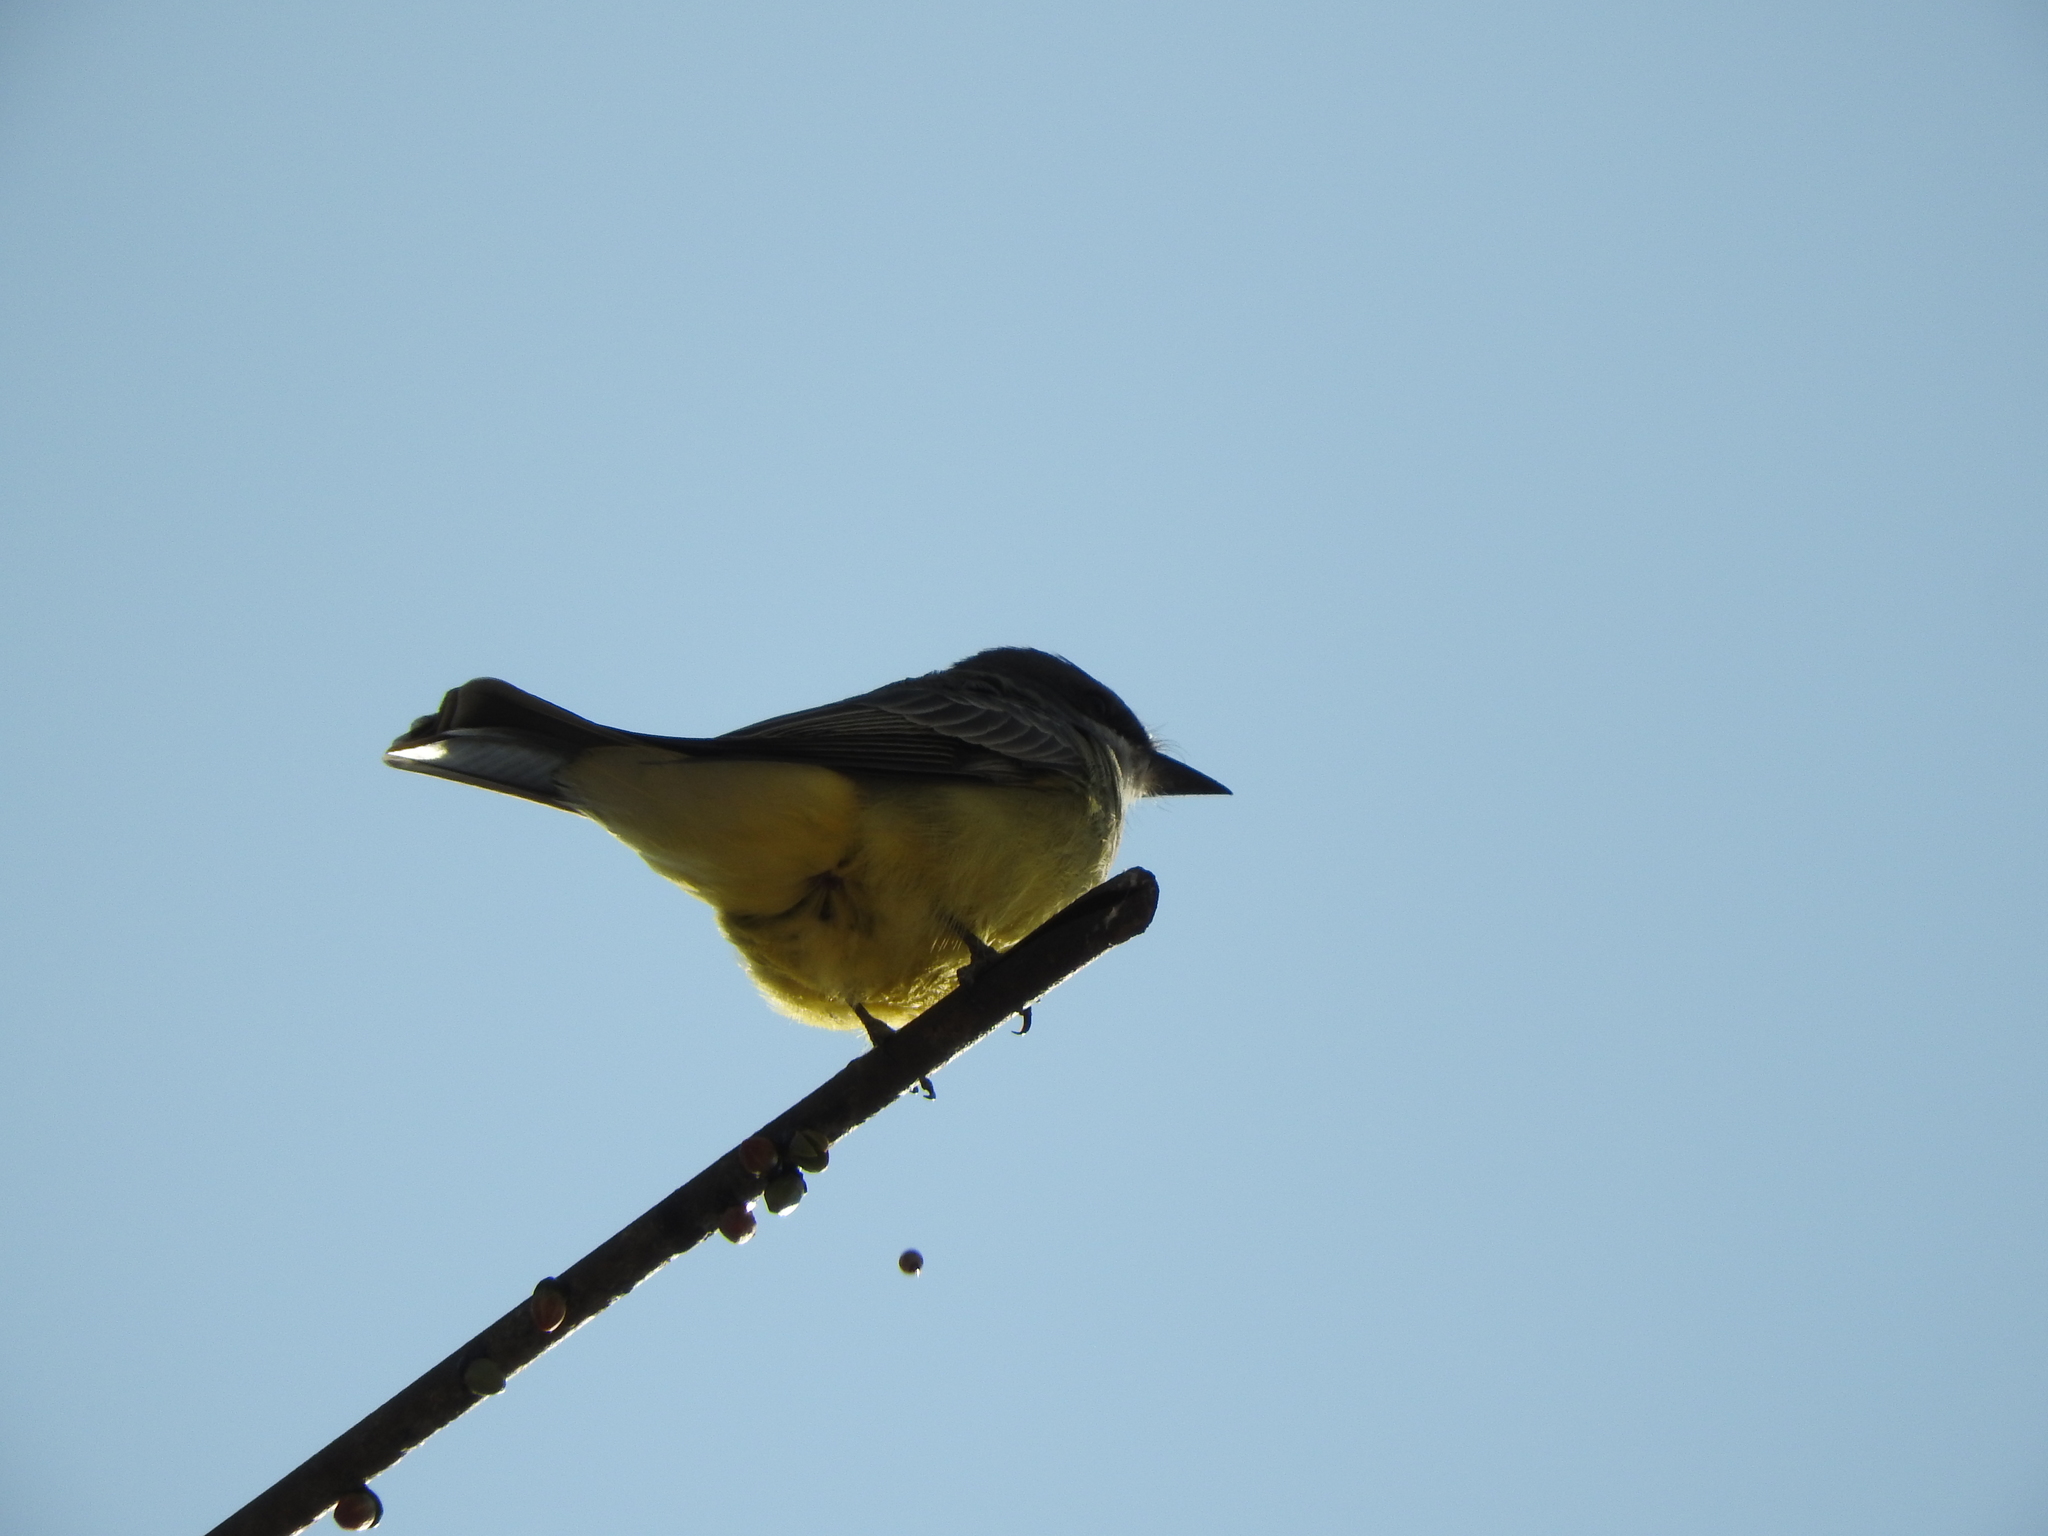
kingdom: Animalia
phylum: Chordata
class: Aves
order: Passeriformes
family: Tyrannidae
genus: Tyrannus
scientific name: Tyrannus vociferans
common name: Cassin's kingbird
